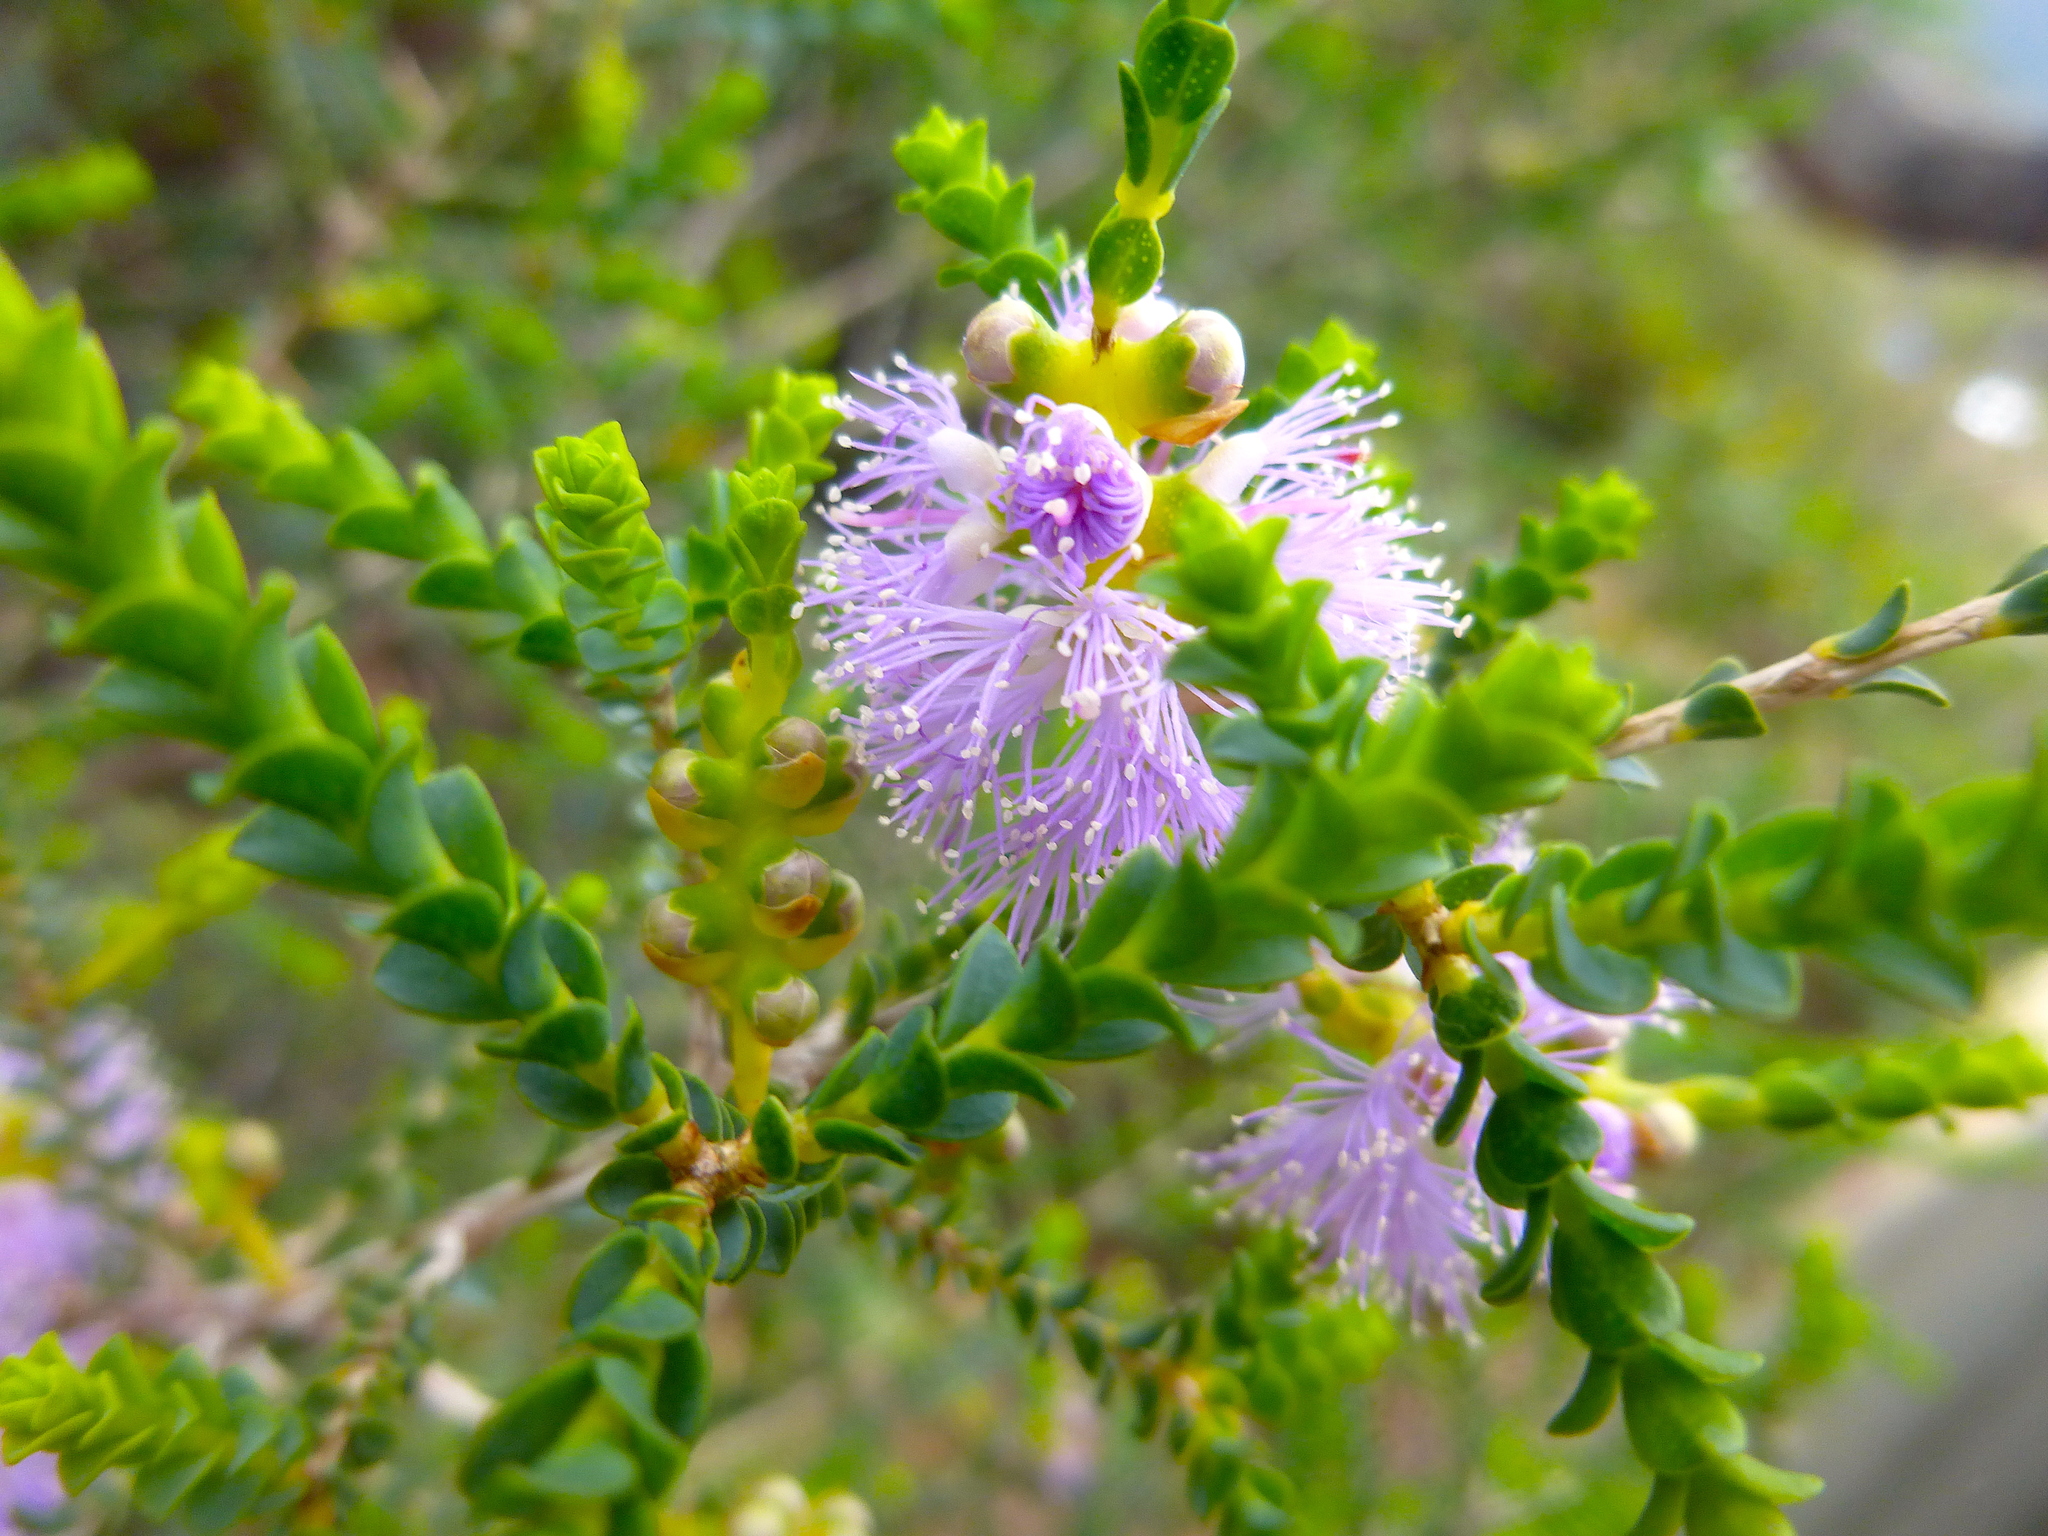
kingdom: Plantae
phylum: Tracheophyta
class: Magnoliopsida
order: Myrtales
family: Myrtaceae
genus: Melaleuca
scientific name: Melaleuca gibbosa
